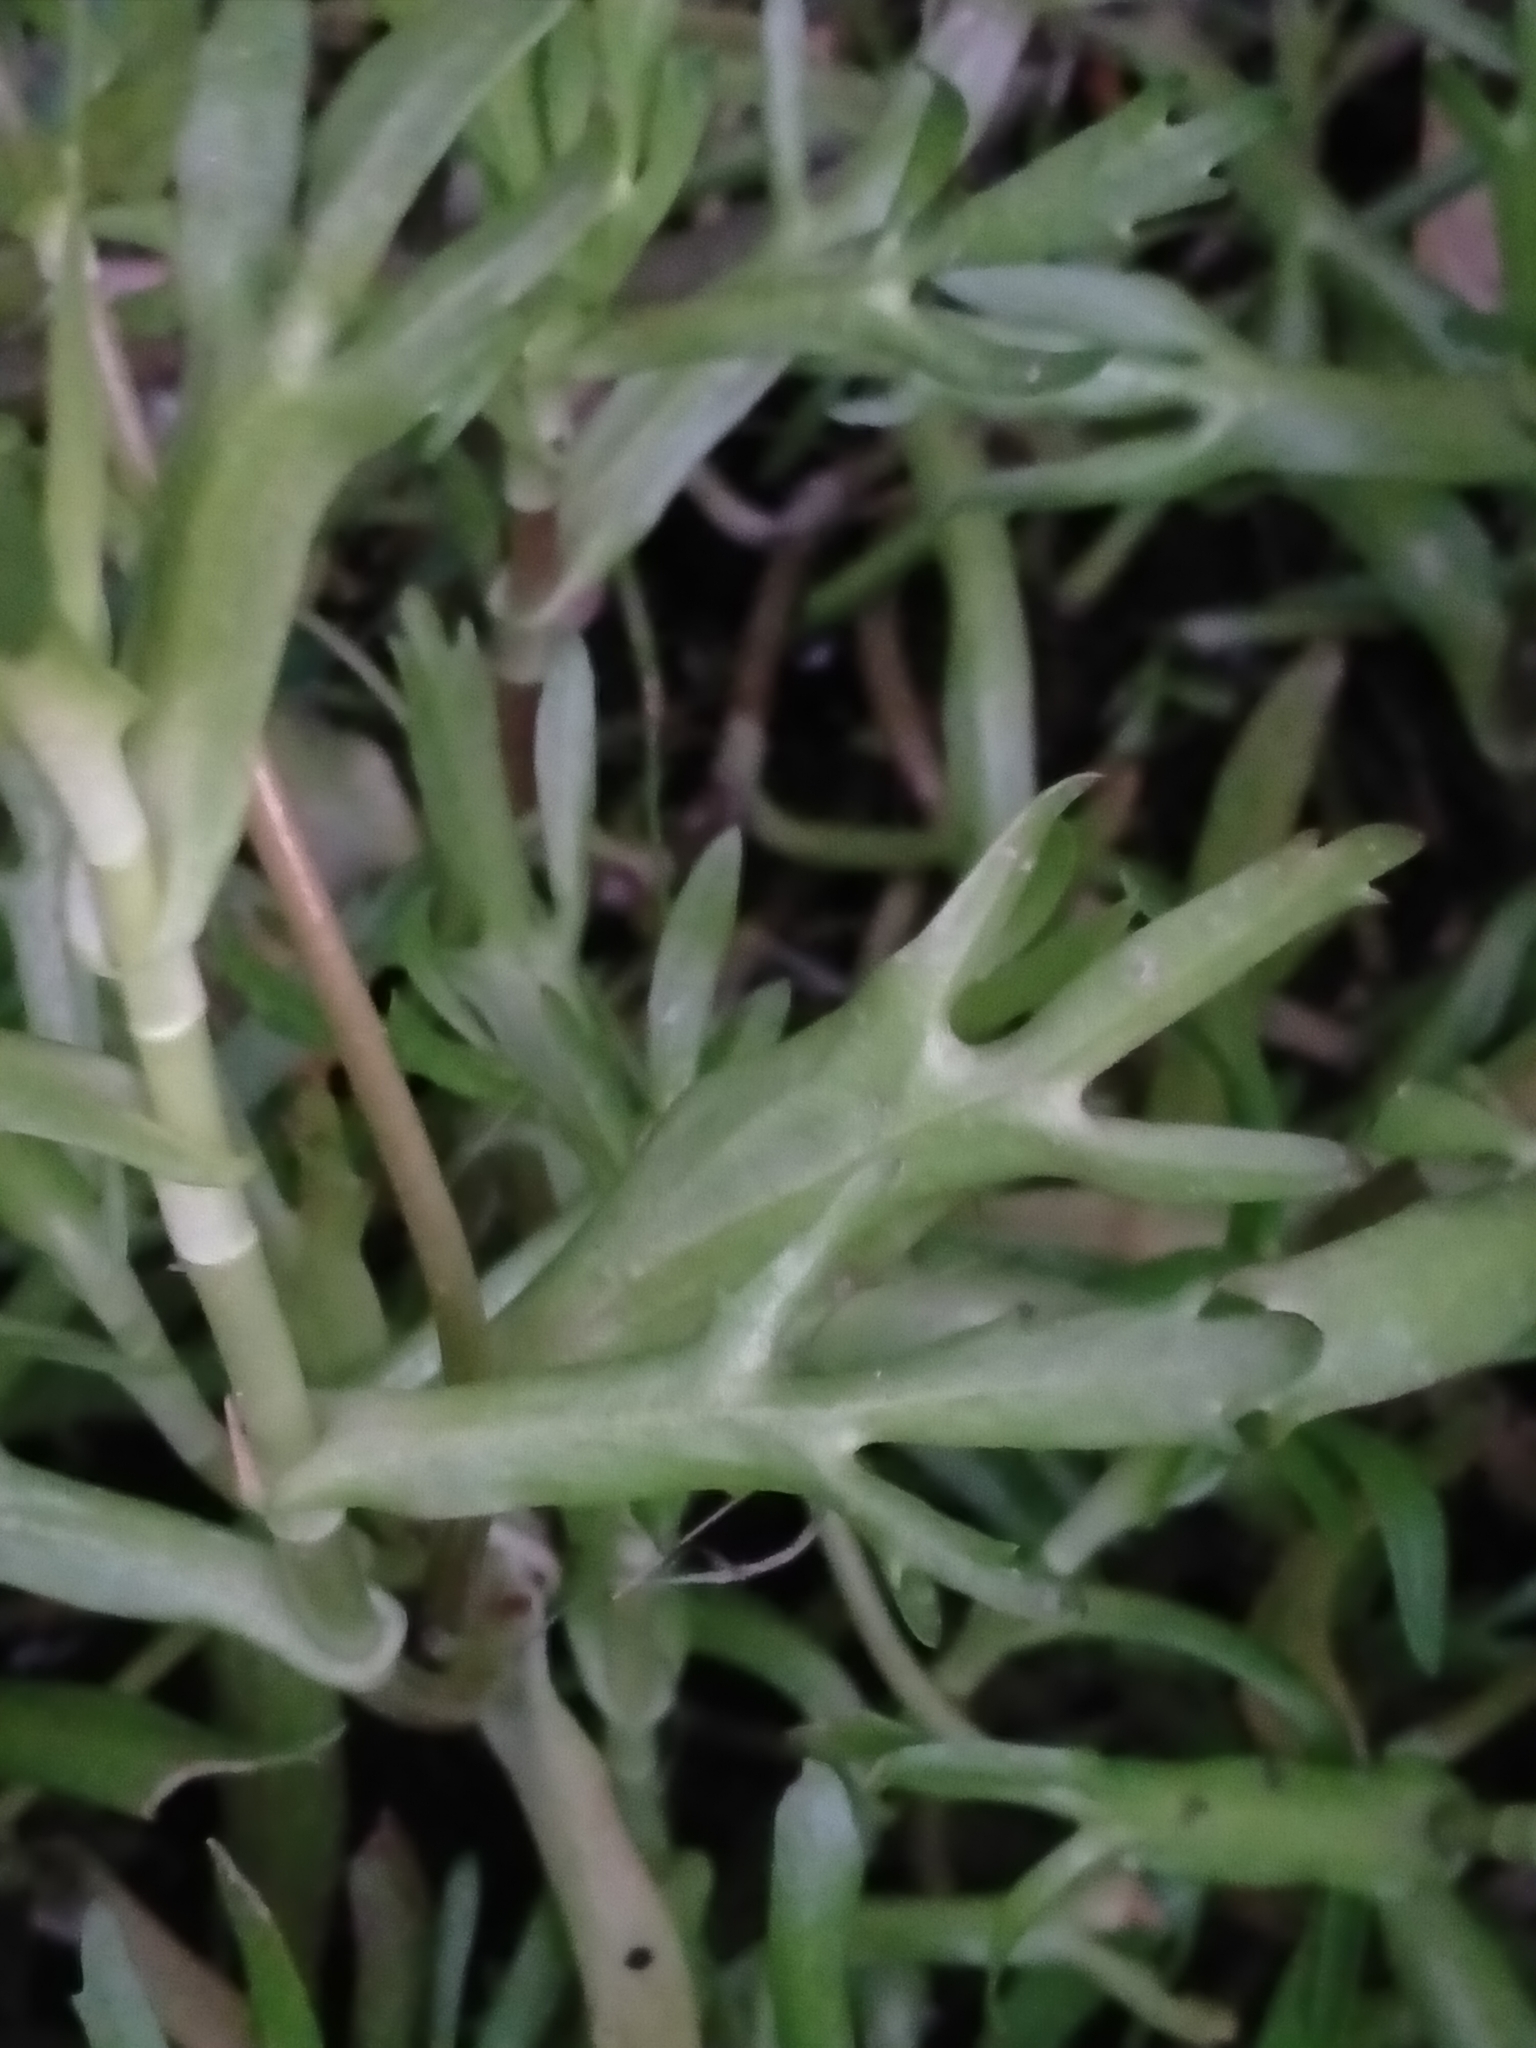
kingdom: Plantae
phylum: Tracheophyta
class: Magnoliopsida
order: Asterales
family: Asteraceae
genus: Cotula
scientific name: Cotula coronopifolia
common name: Buttonweed
